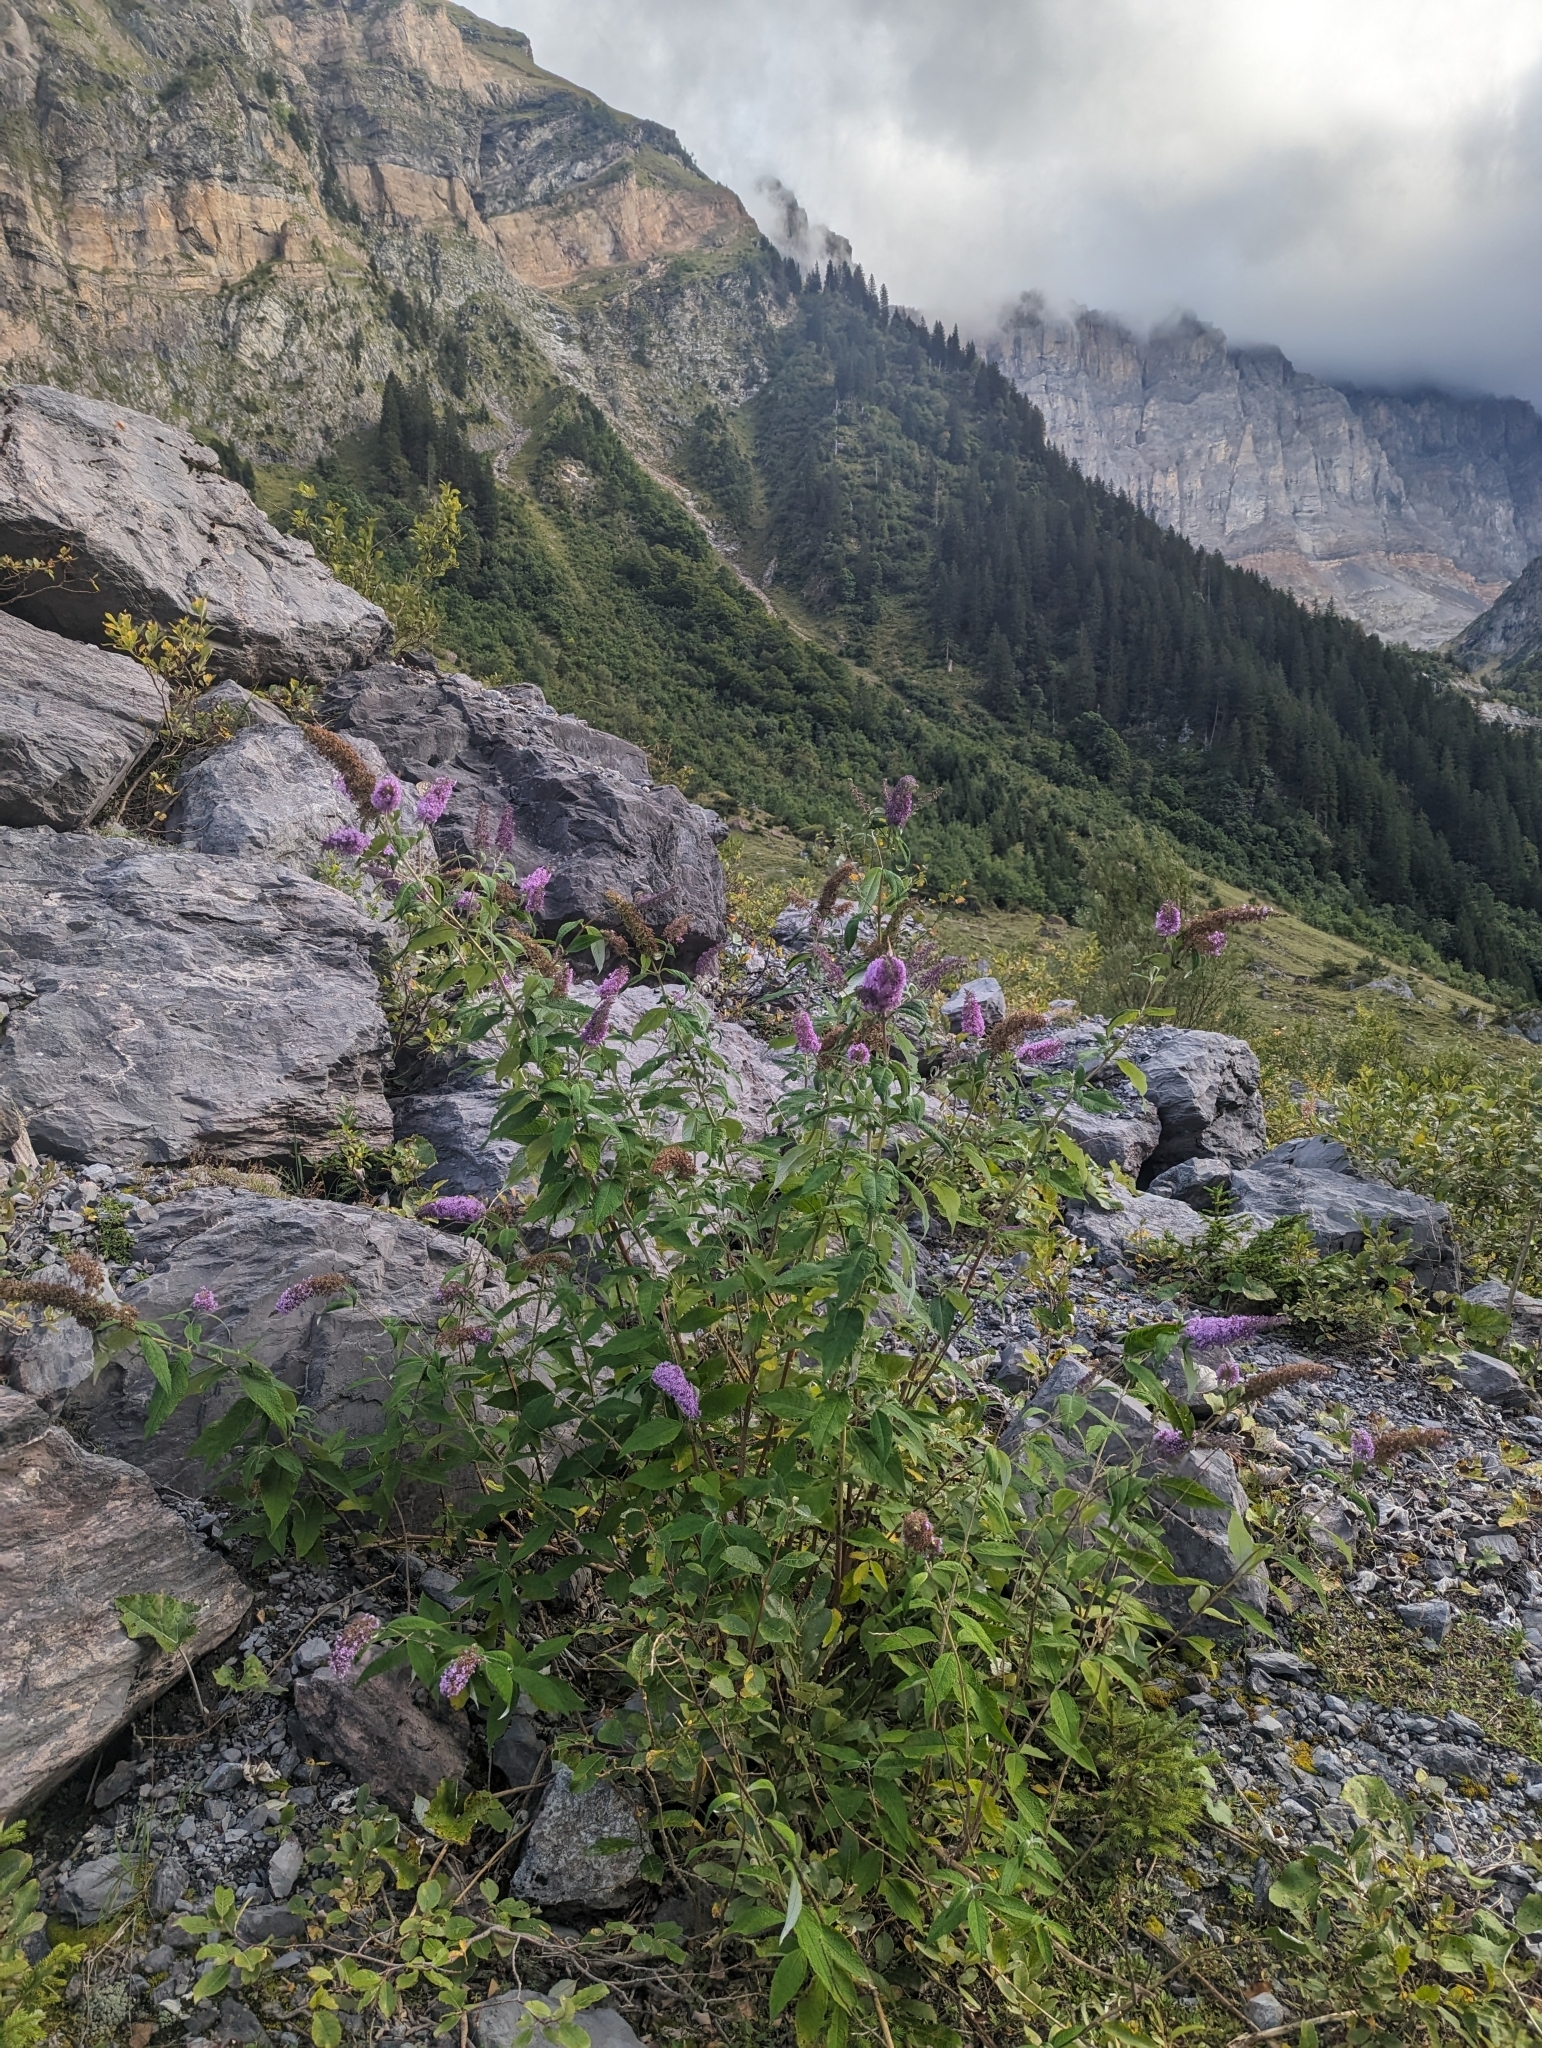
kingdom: Plantae
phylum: Tracheophyta
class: Magnoliopsida
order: Lamiales
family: Scrophulariaceae
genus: Buddleja
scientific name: Buddleja davidii
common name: Butterfly-bush
